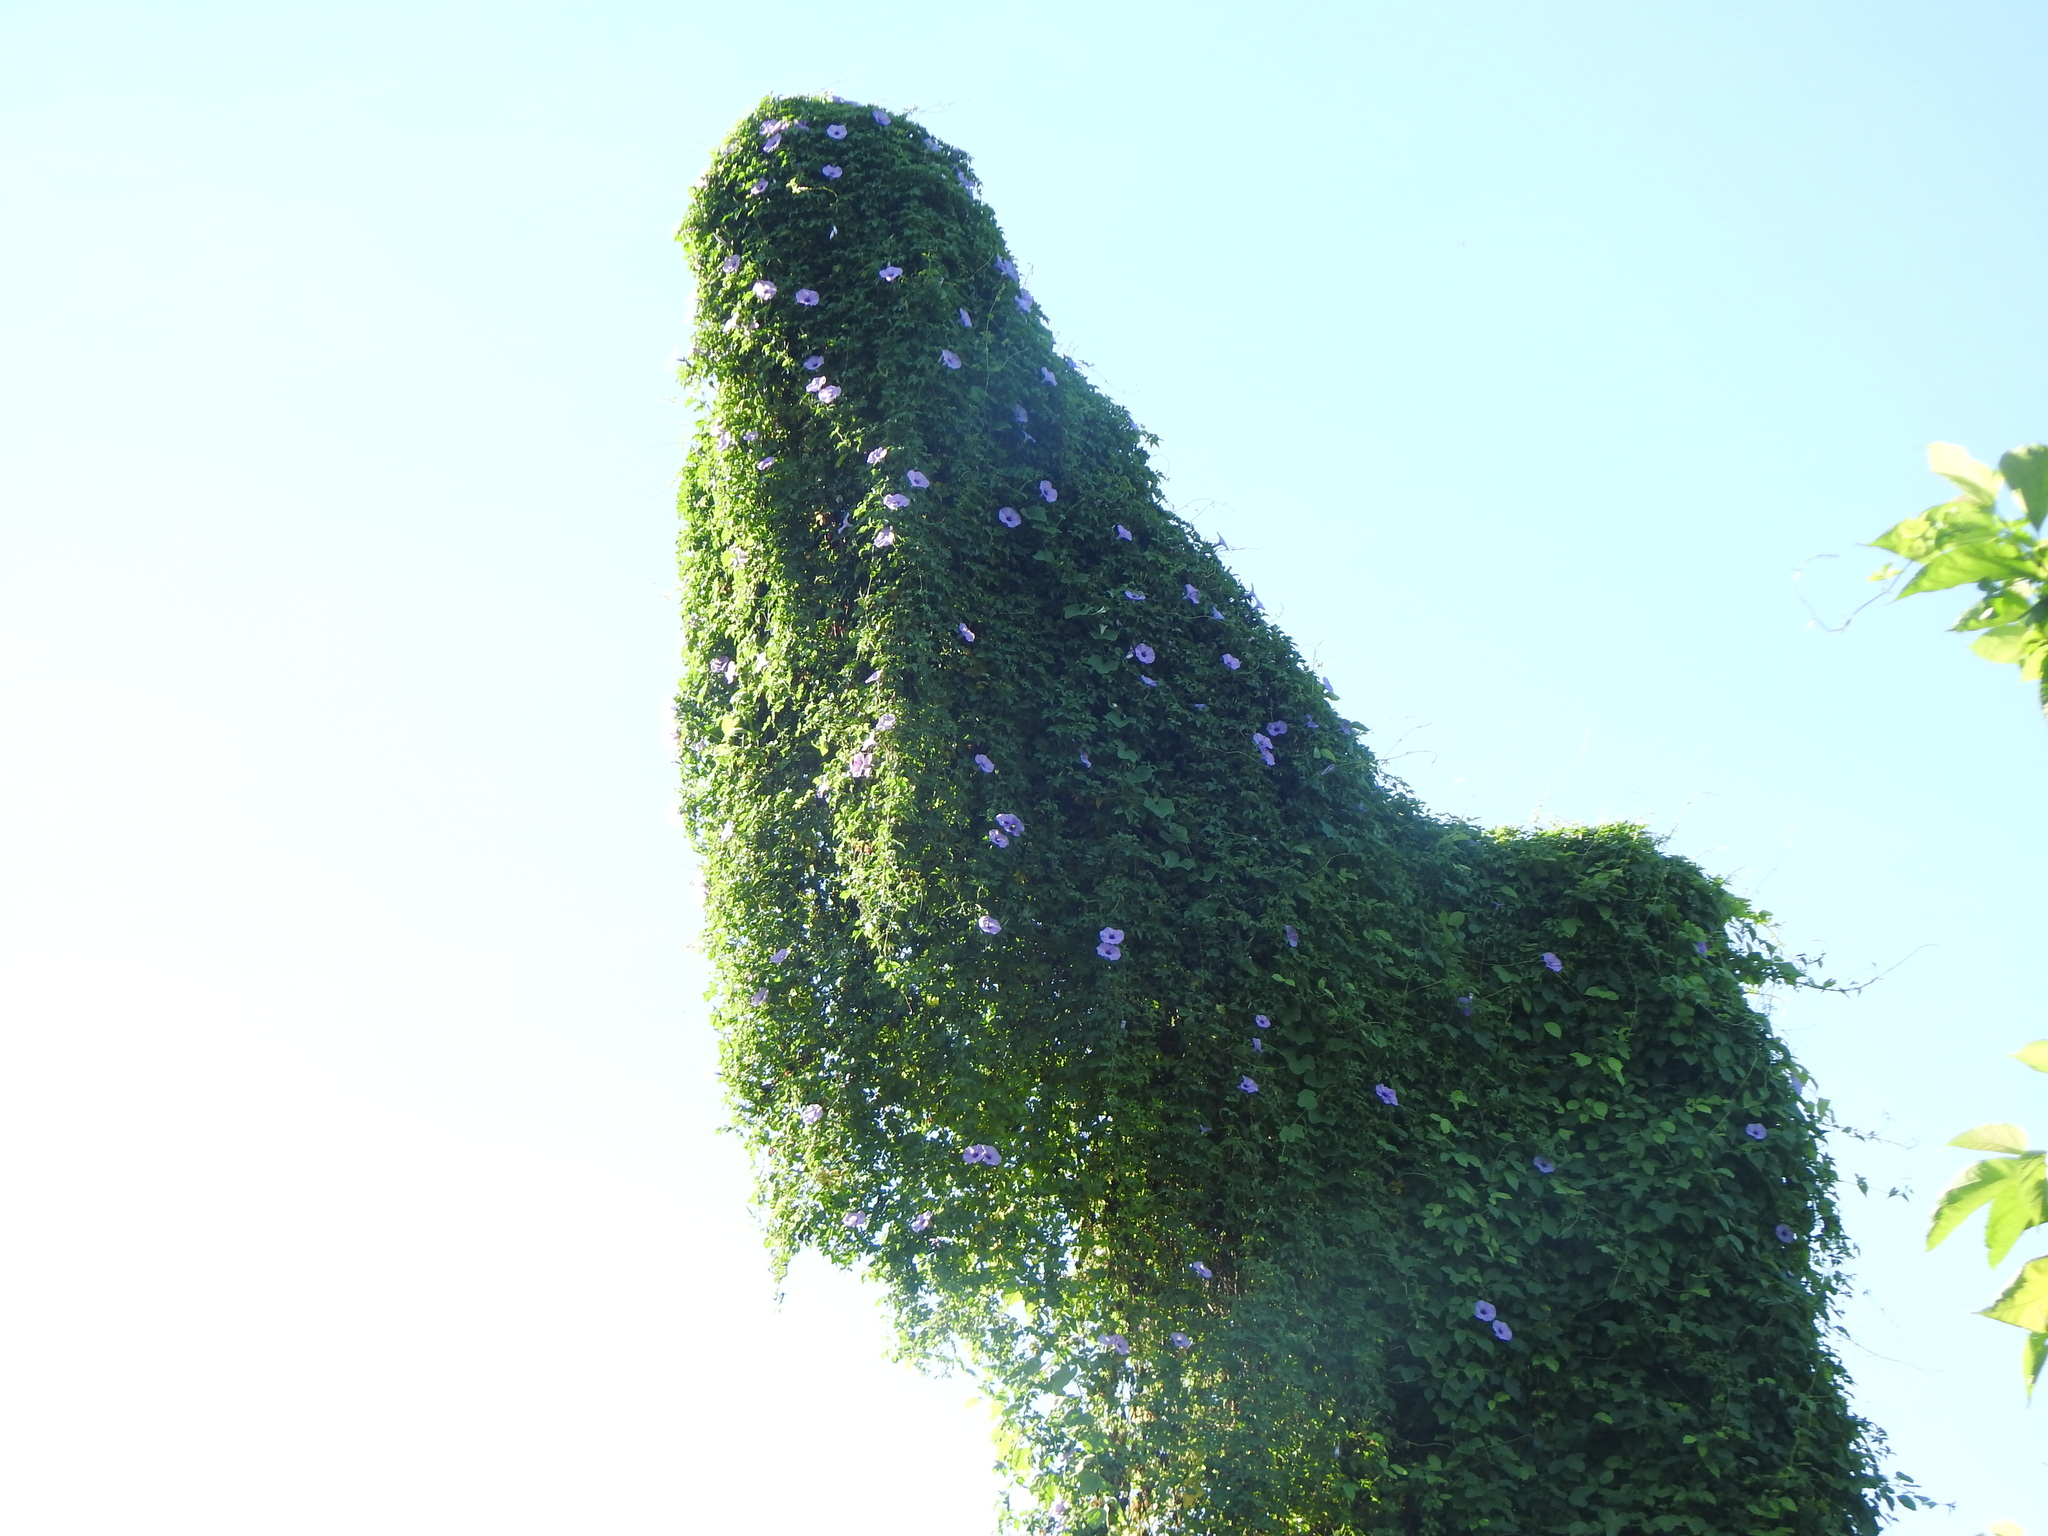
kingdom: Plantae
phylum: Tracheophyta
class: Magnoliopsida
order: Solanales
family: Convolvulaceae
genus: Ipomoea
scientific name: Ipomoea cairica
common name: Mile a minute vine
